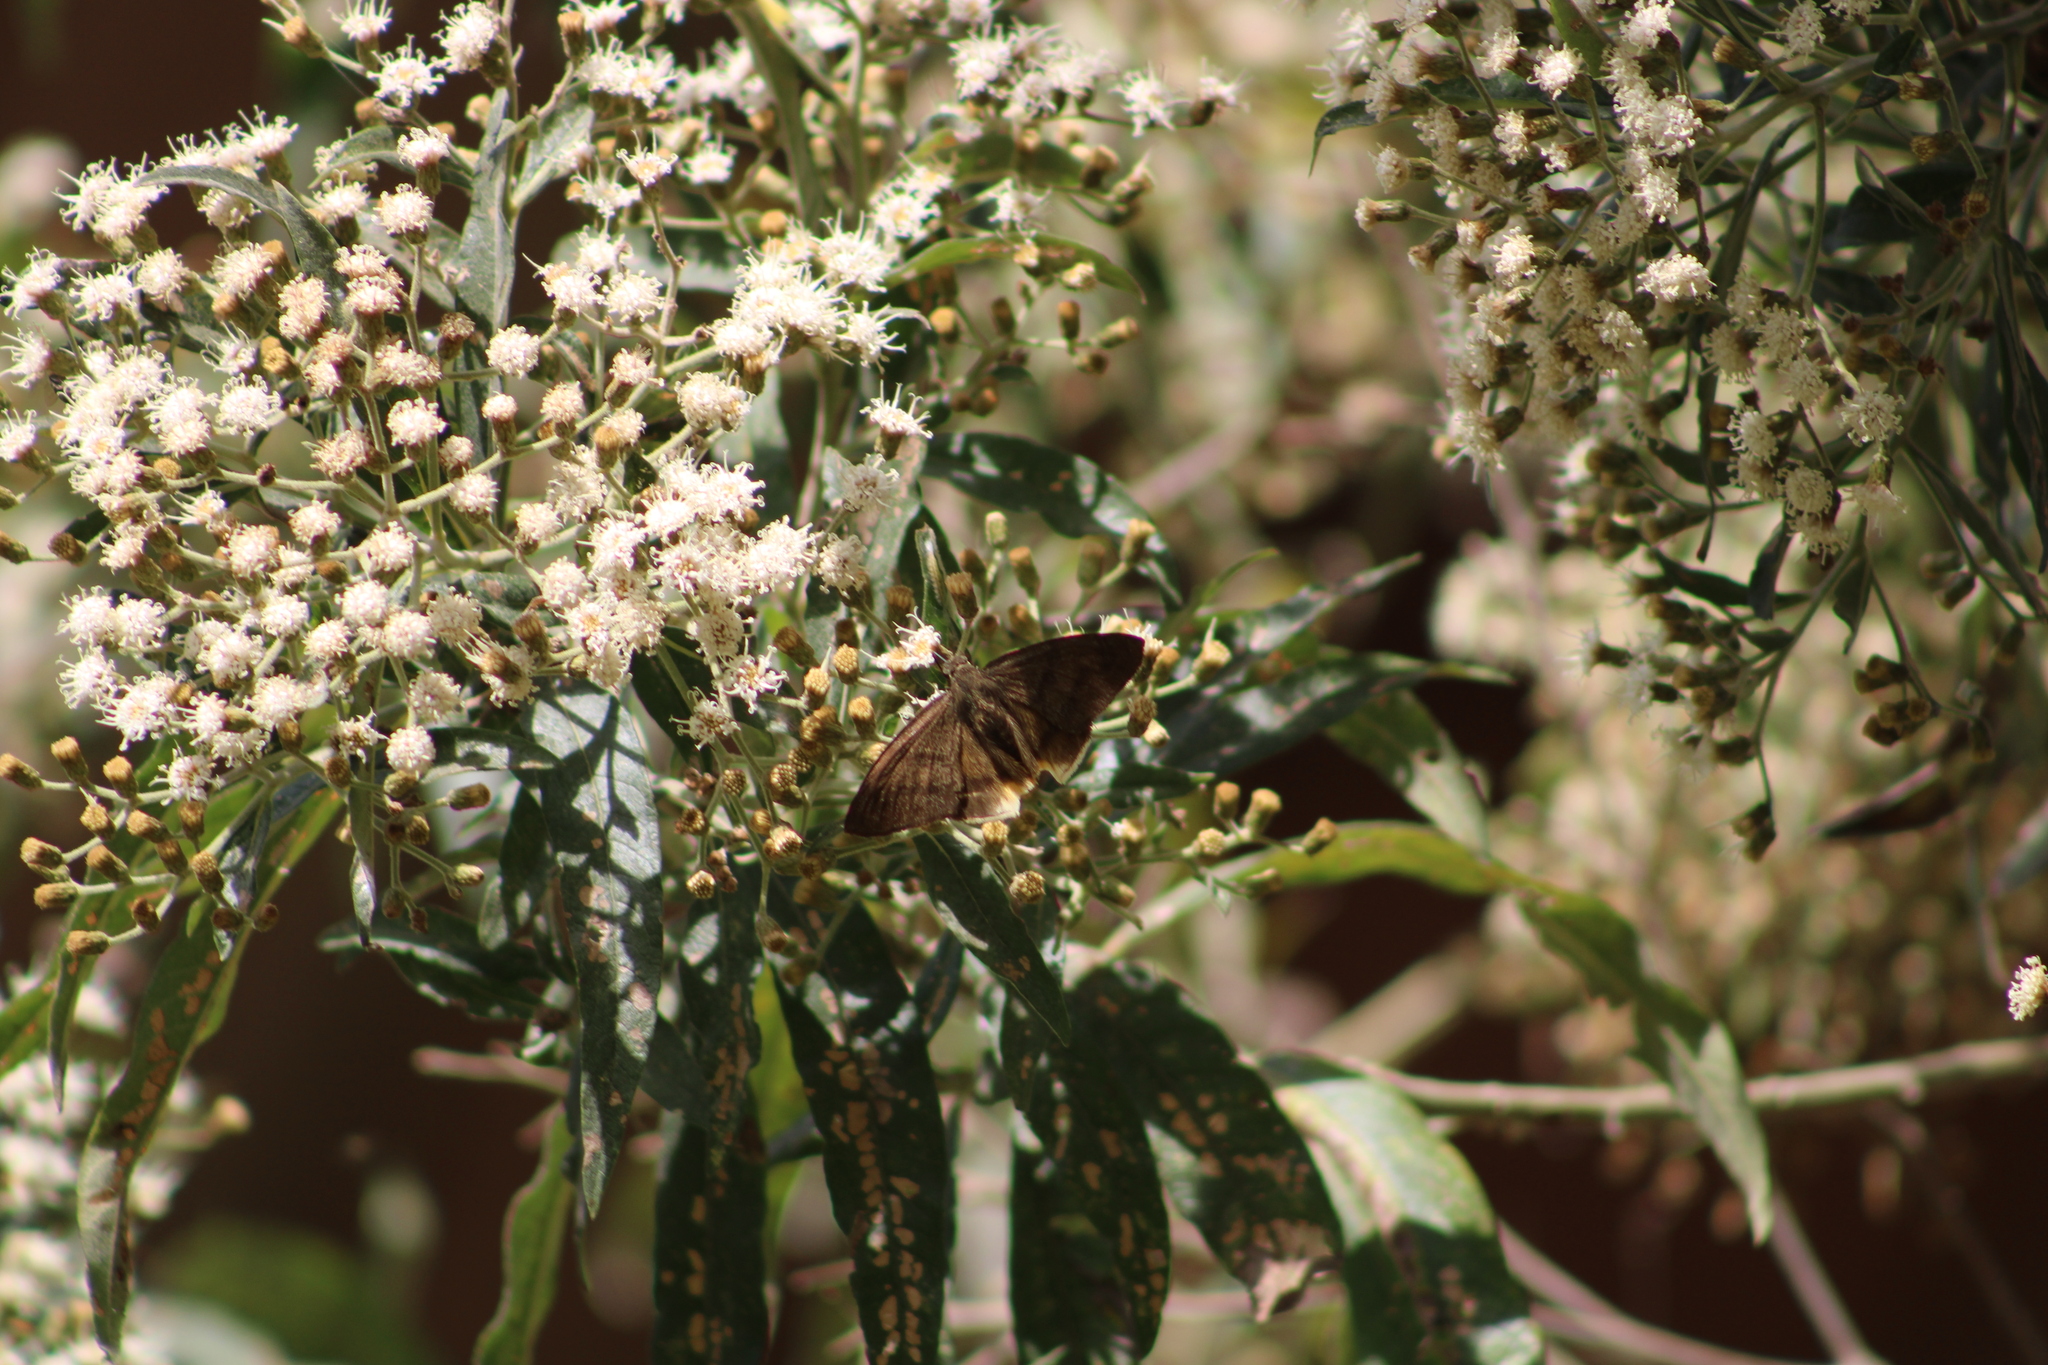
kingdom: Animalia
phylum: Arthropoda
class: Insecta
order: Lepidoptera
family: Hesperiidae
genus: Astraptes
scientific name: Astraptes anaphus
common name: Yellow-tipped flasher
